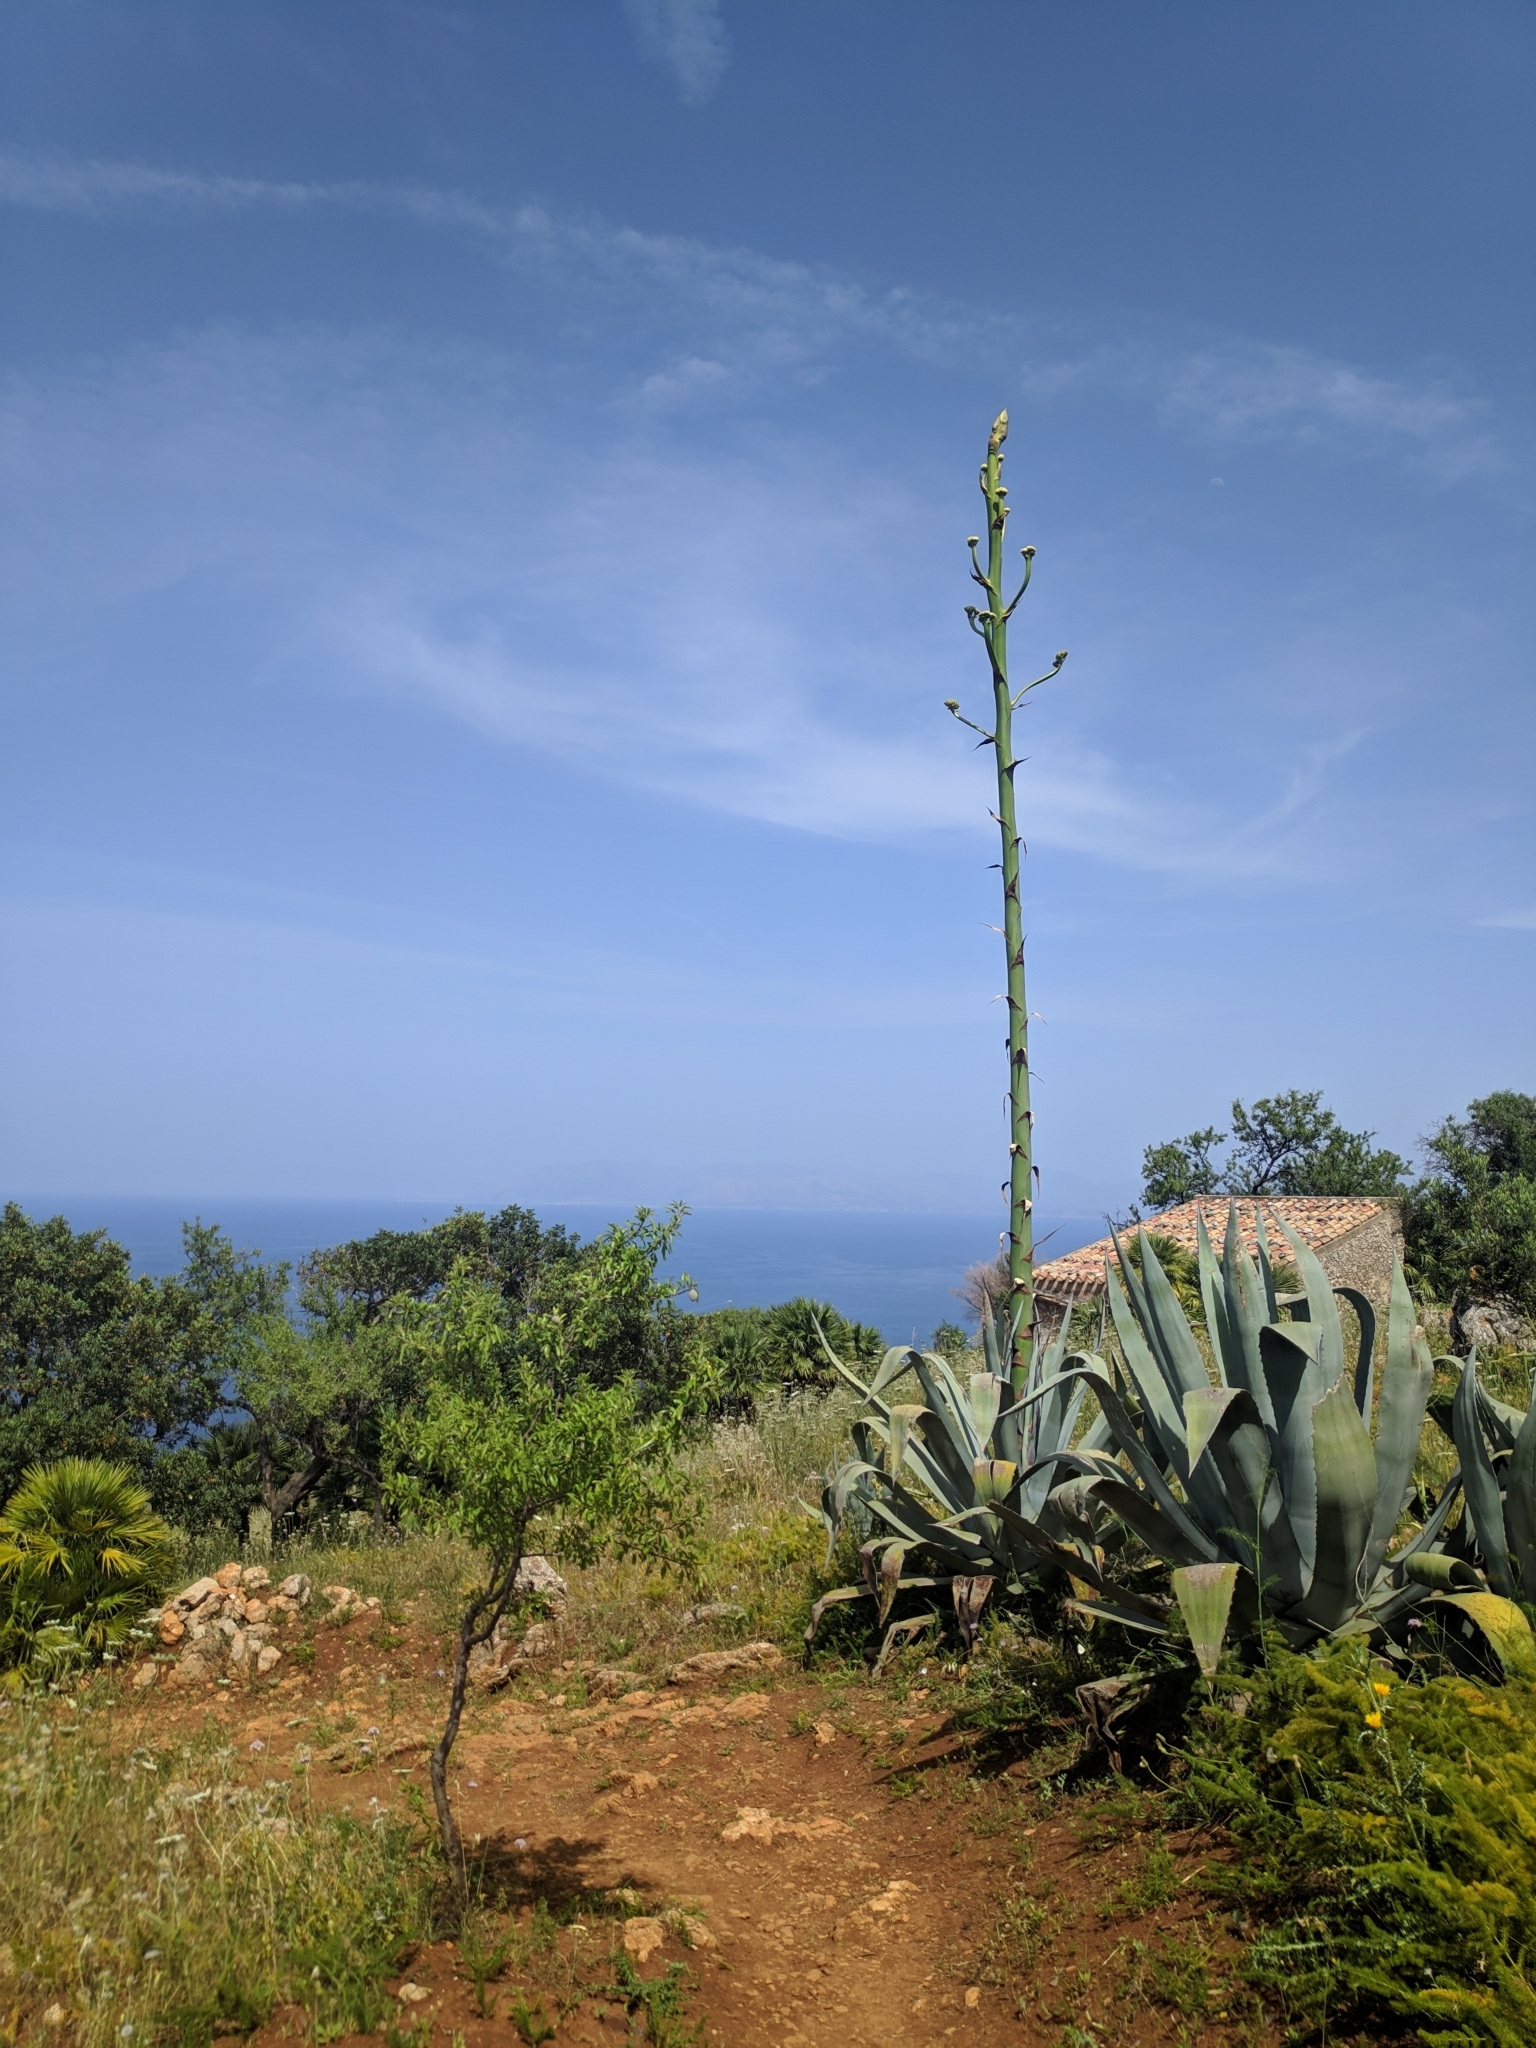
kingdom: Plantae
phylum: Tracheophyta
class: Liliopsida
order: Asparagales
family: Asparagaceae
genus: Agave
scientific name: Agave americana
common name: Centuryplant
